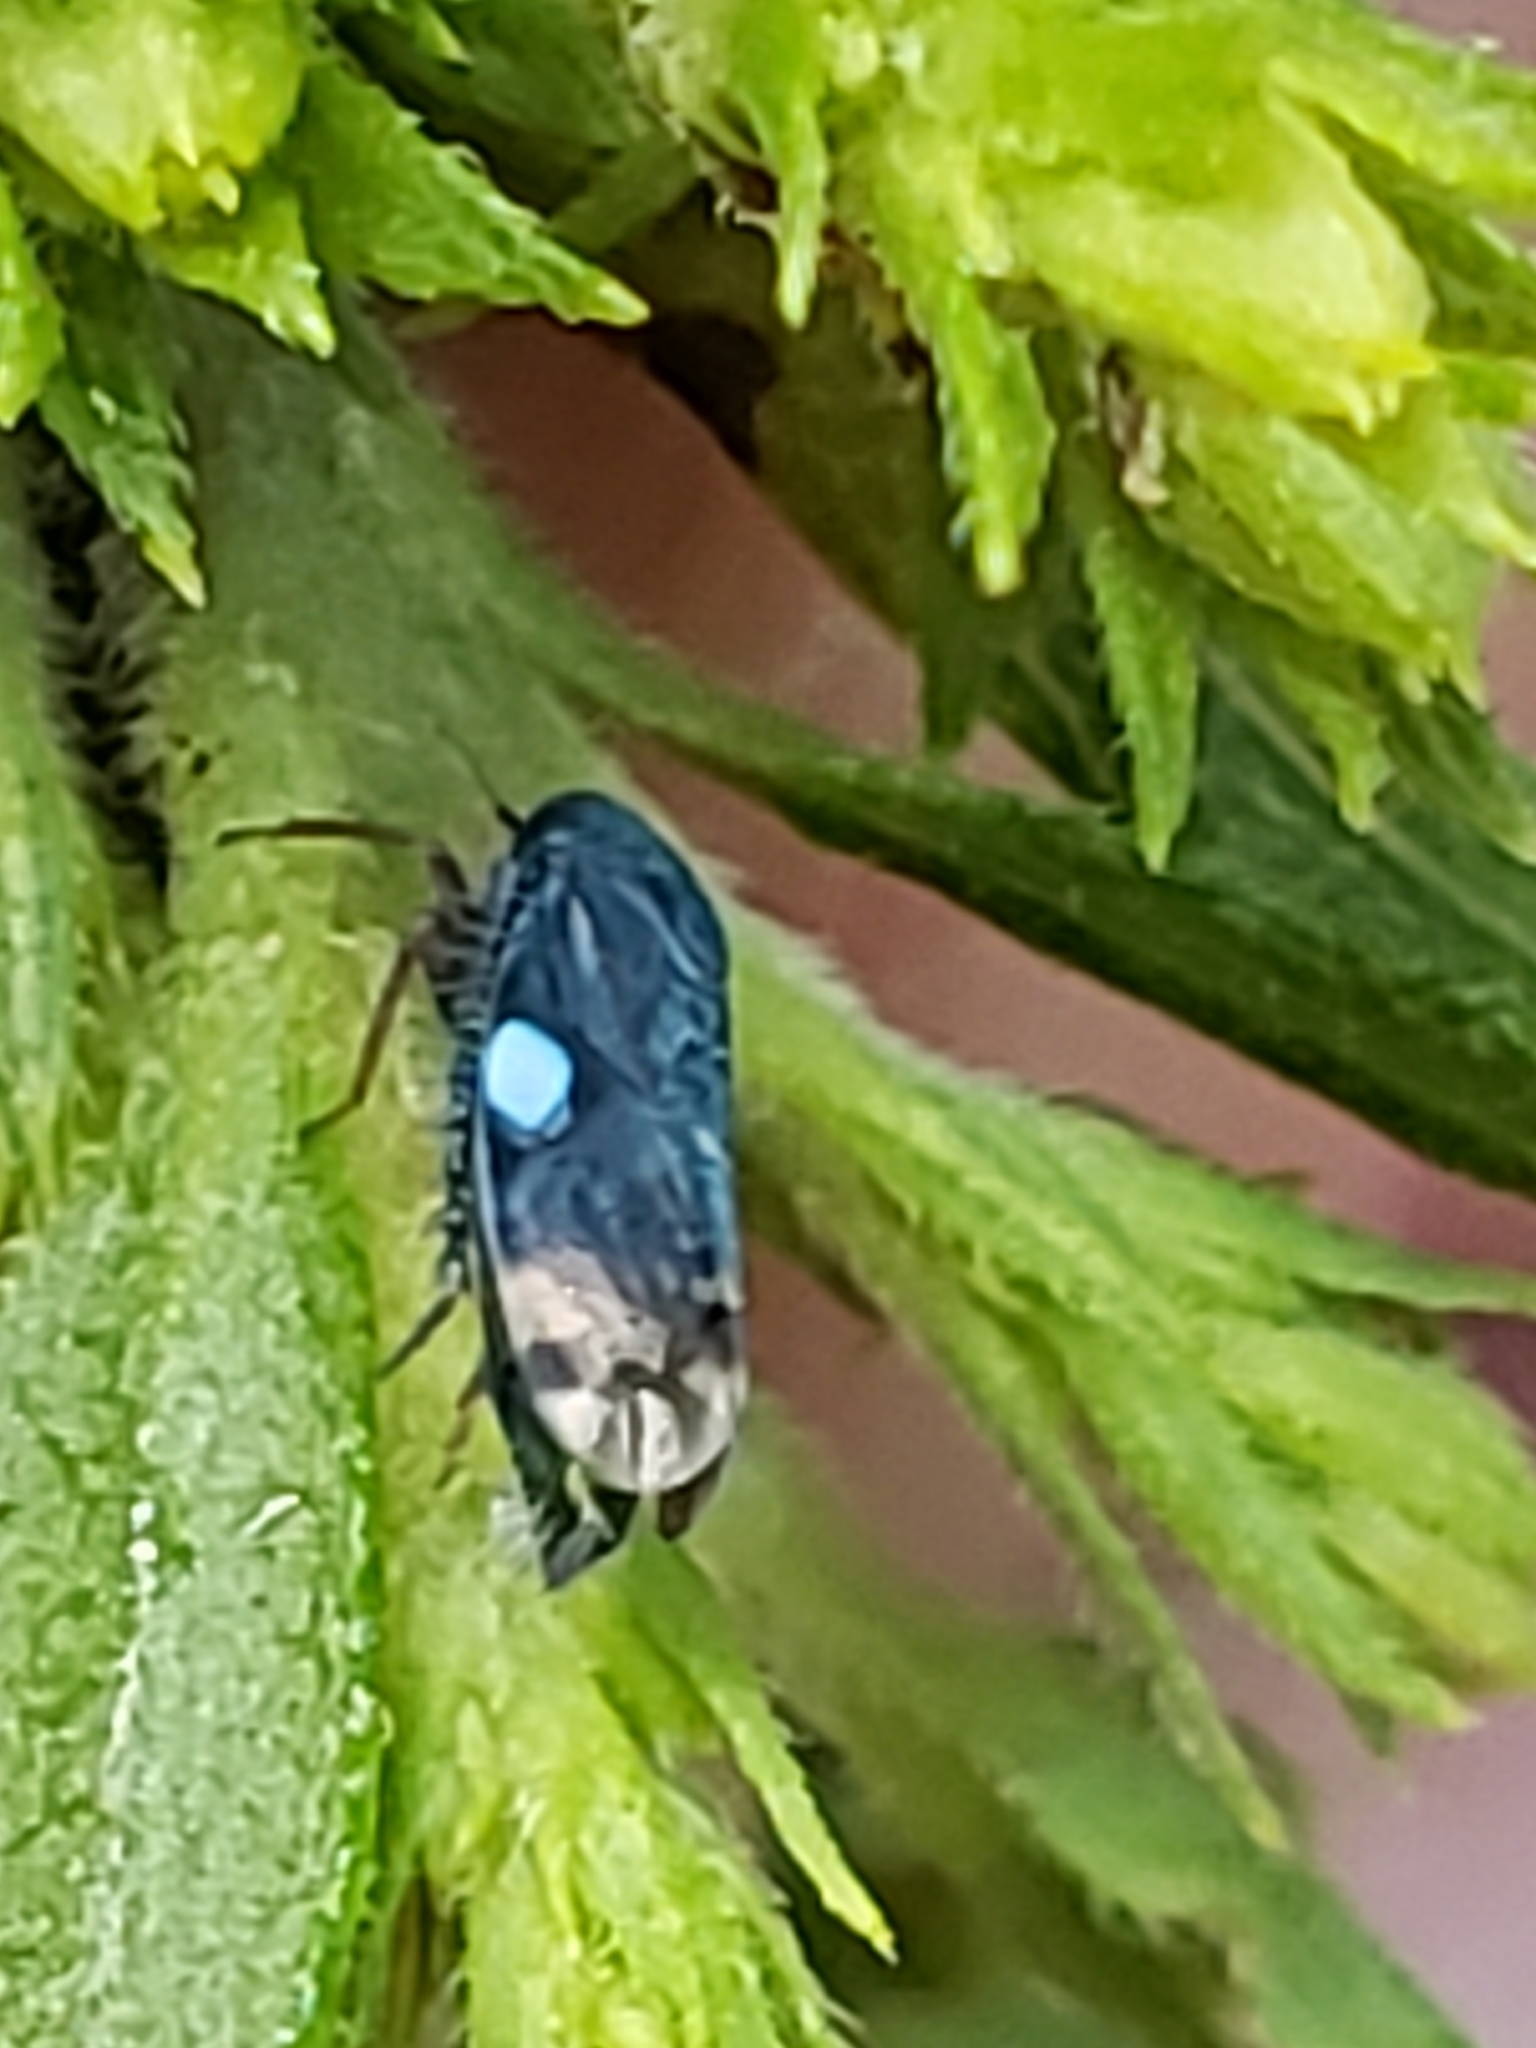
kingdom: Animalia
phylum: Arthropoda
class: Insecta
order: Hemiptera
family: Cicadellidae
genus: Xestocephalus
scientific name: Xestocephalus brunneus
